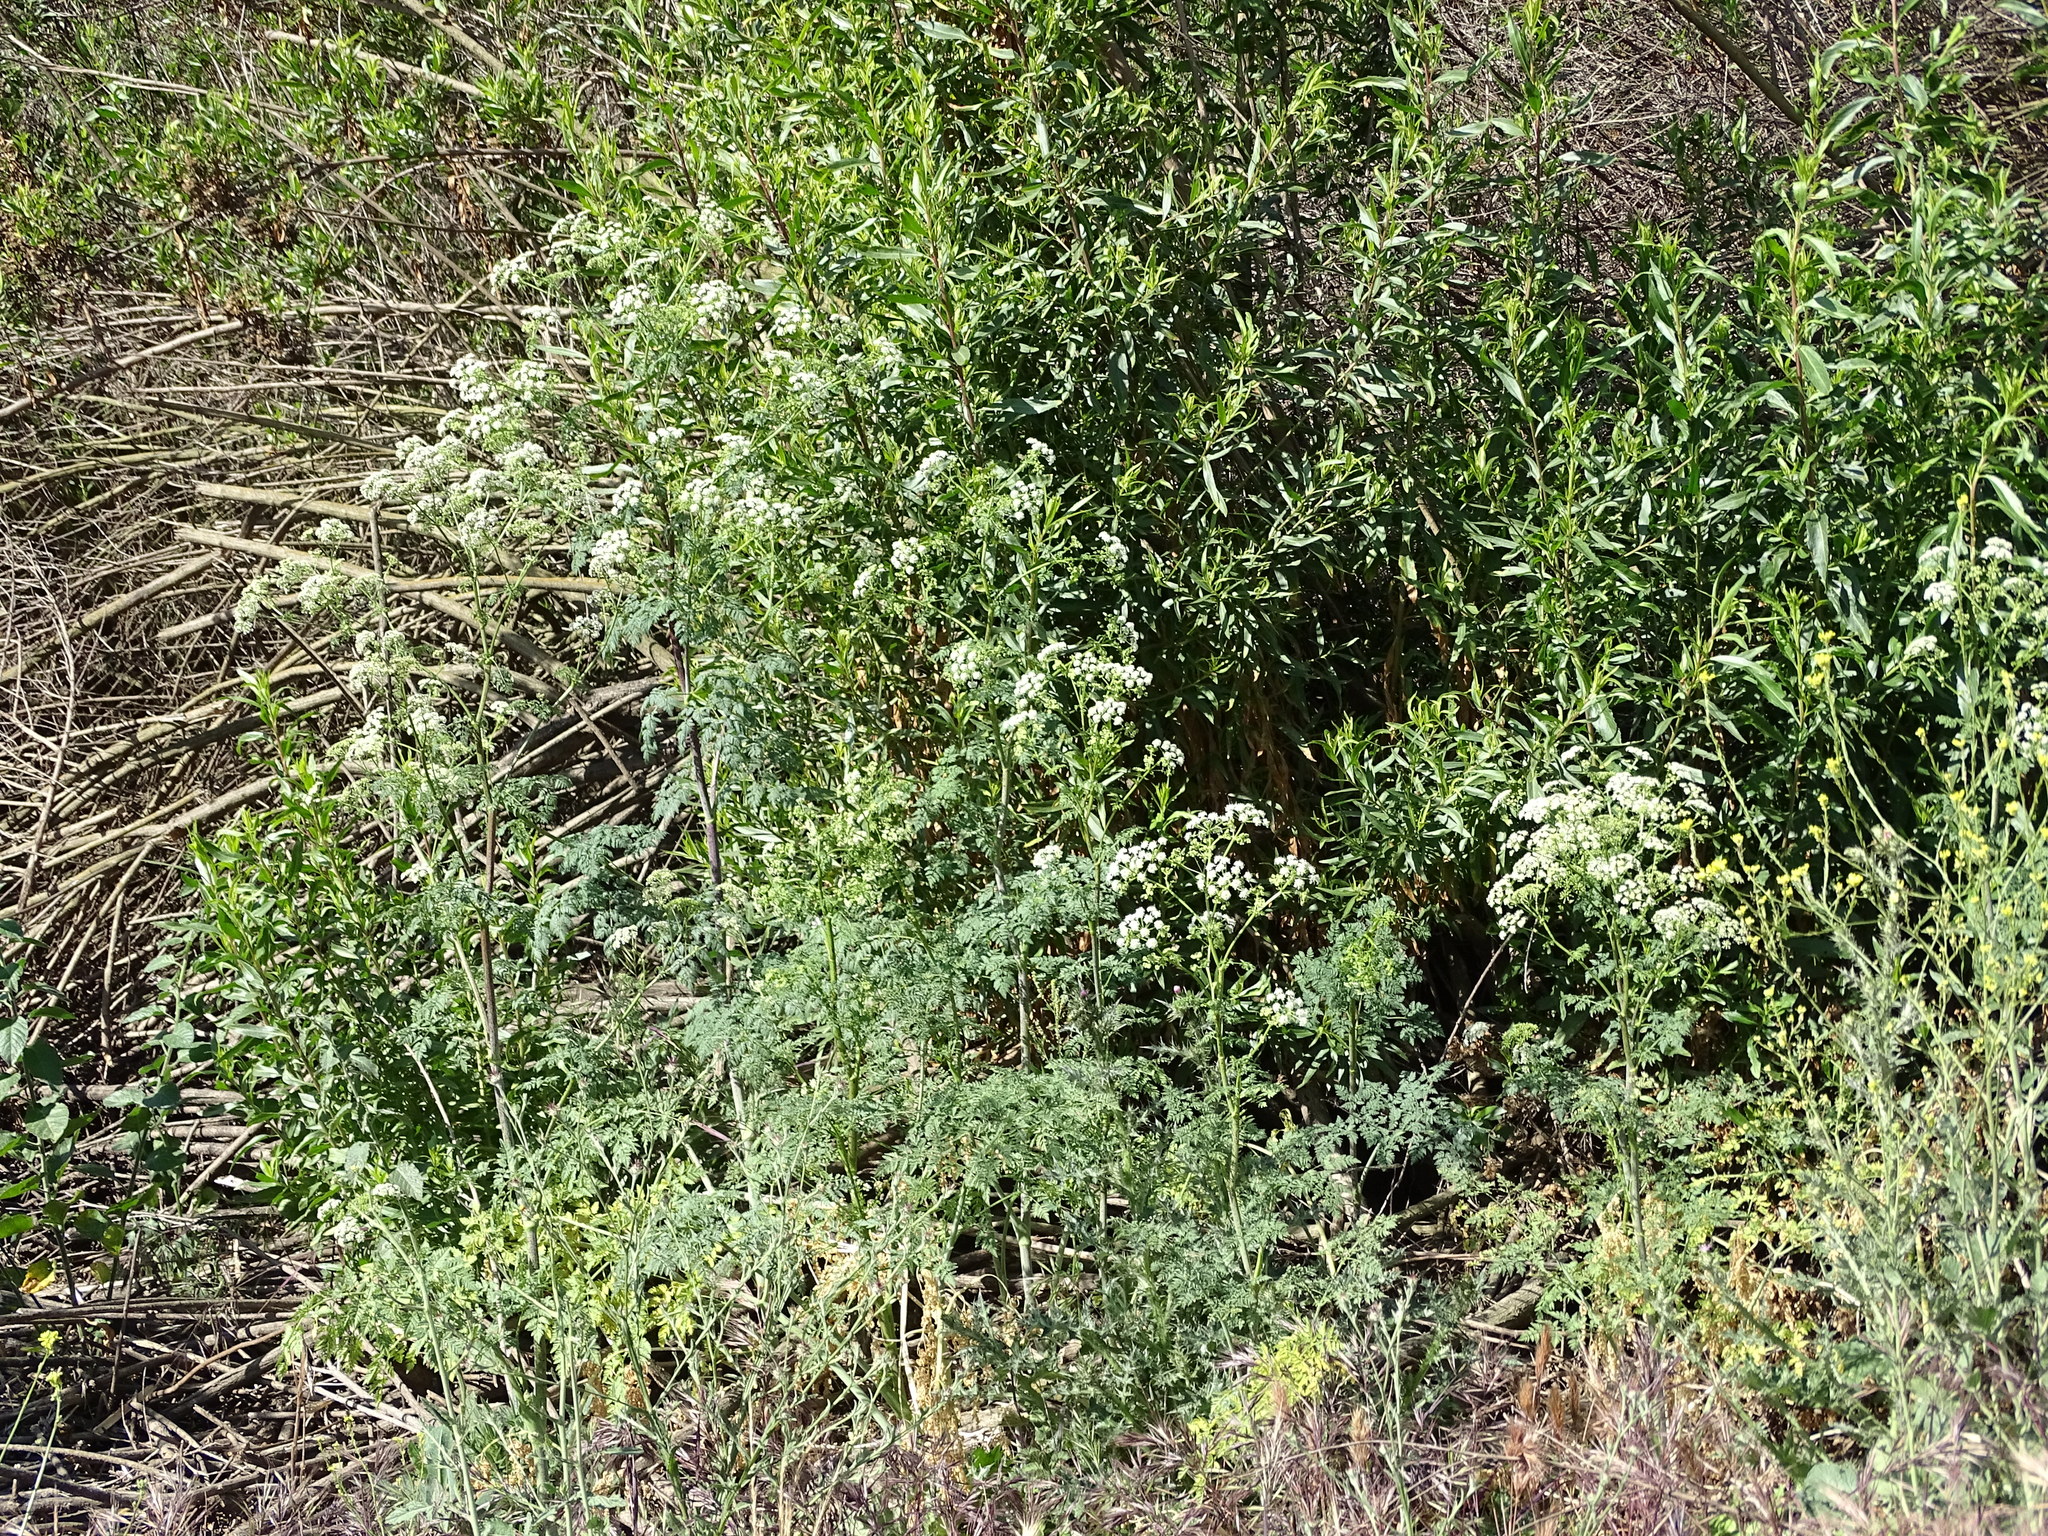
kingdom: Plantae
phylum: Tracheophyta
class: Magnoliopsida
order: Apiales
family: Apiaceae
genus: Conium
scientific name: Conium maculatum
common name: Hemlock
